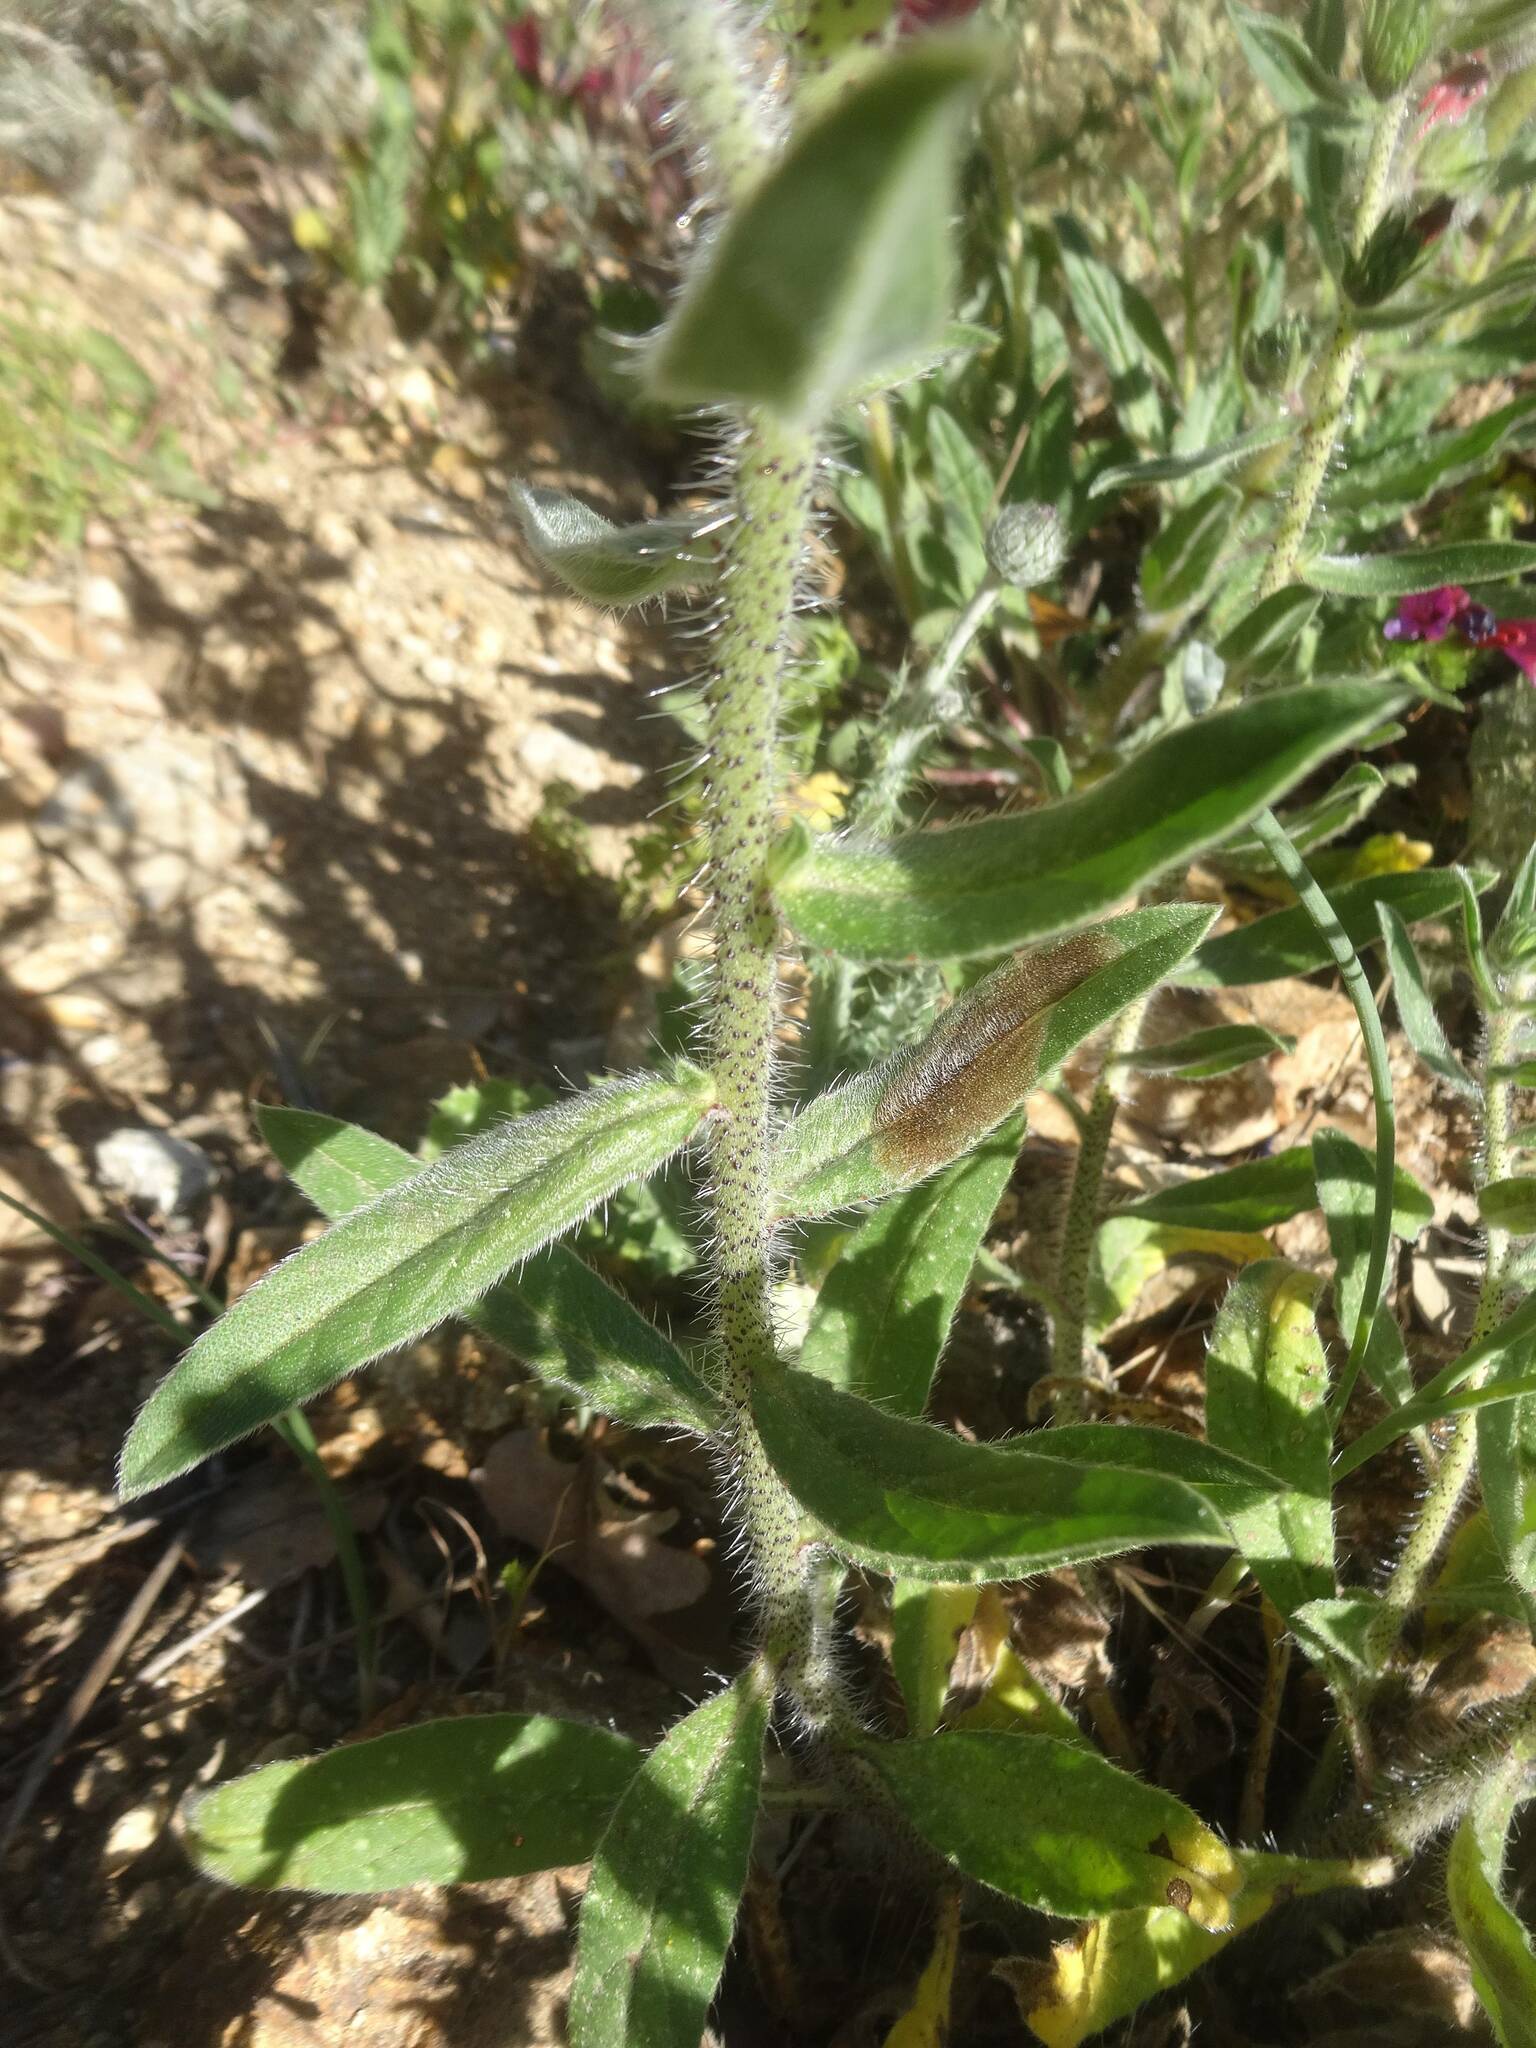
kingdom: Plantae
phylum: Tracheophyta
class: Magnoliopsida
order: Boraginales
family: Boraginaceae
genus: Echium
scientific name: Echium creticum
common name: Cretan viper's bugloss
